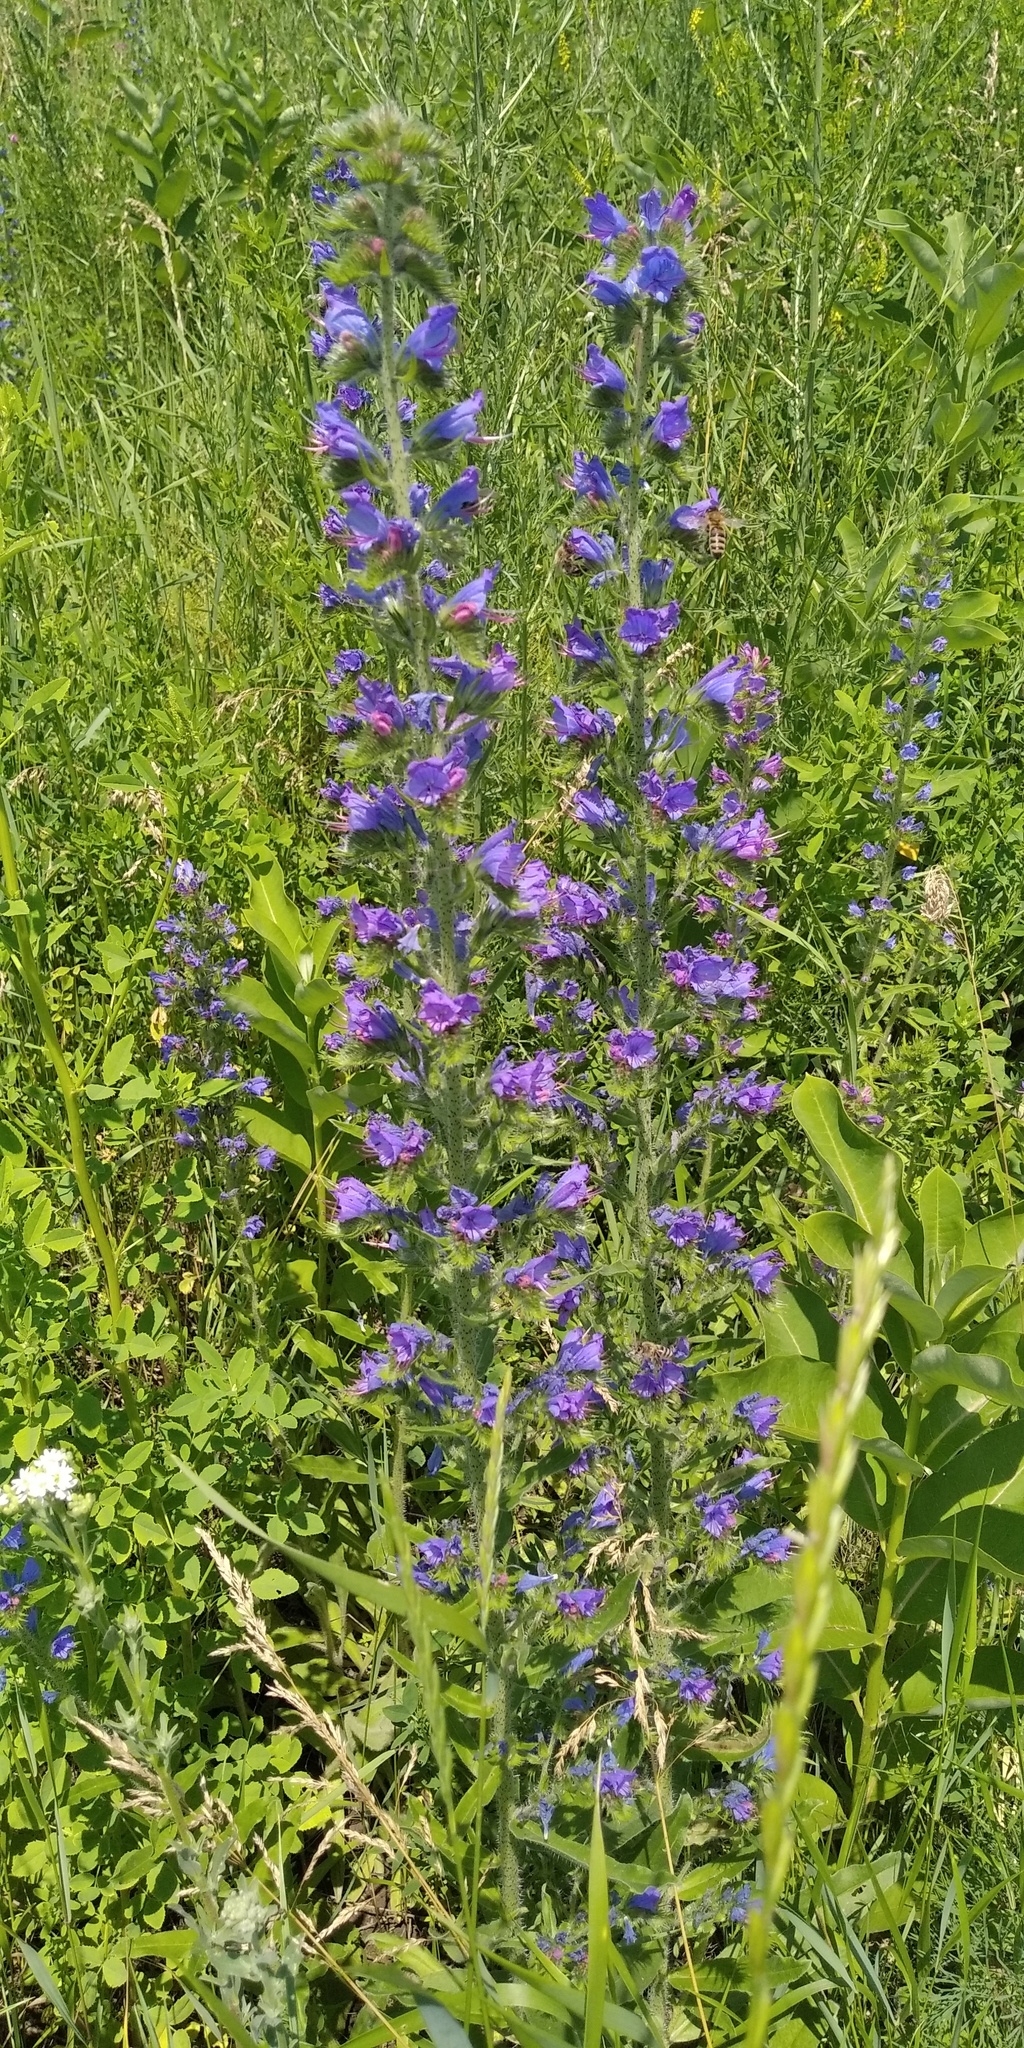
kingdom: Plantae
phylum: Tracheophyta
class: Magnoliopsida
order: Boraginales
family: Boraginaceae
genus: Echium
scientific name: Echium vulgare
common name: Common viper's bugloss
